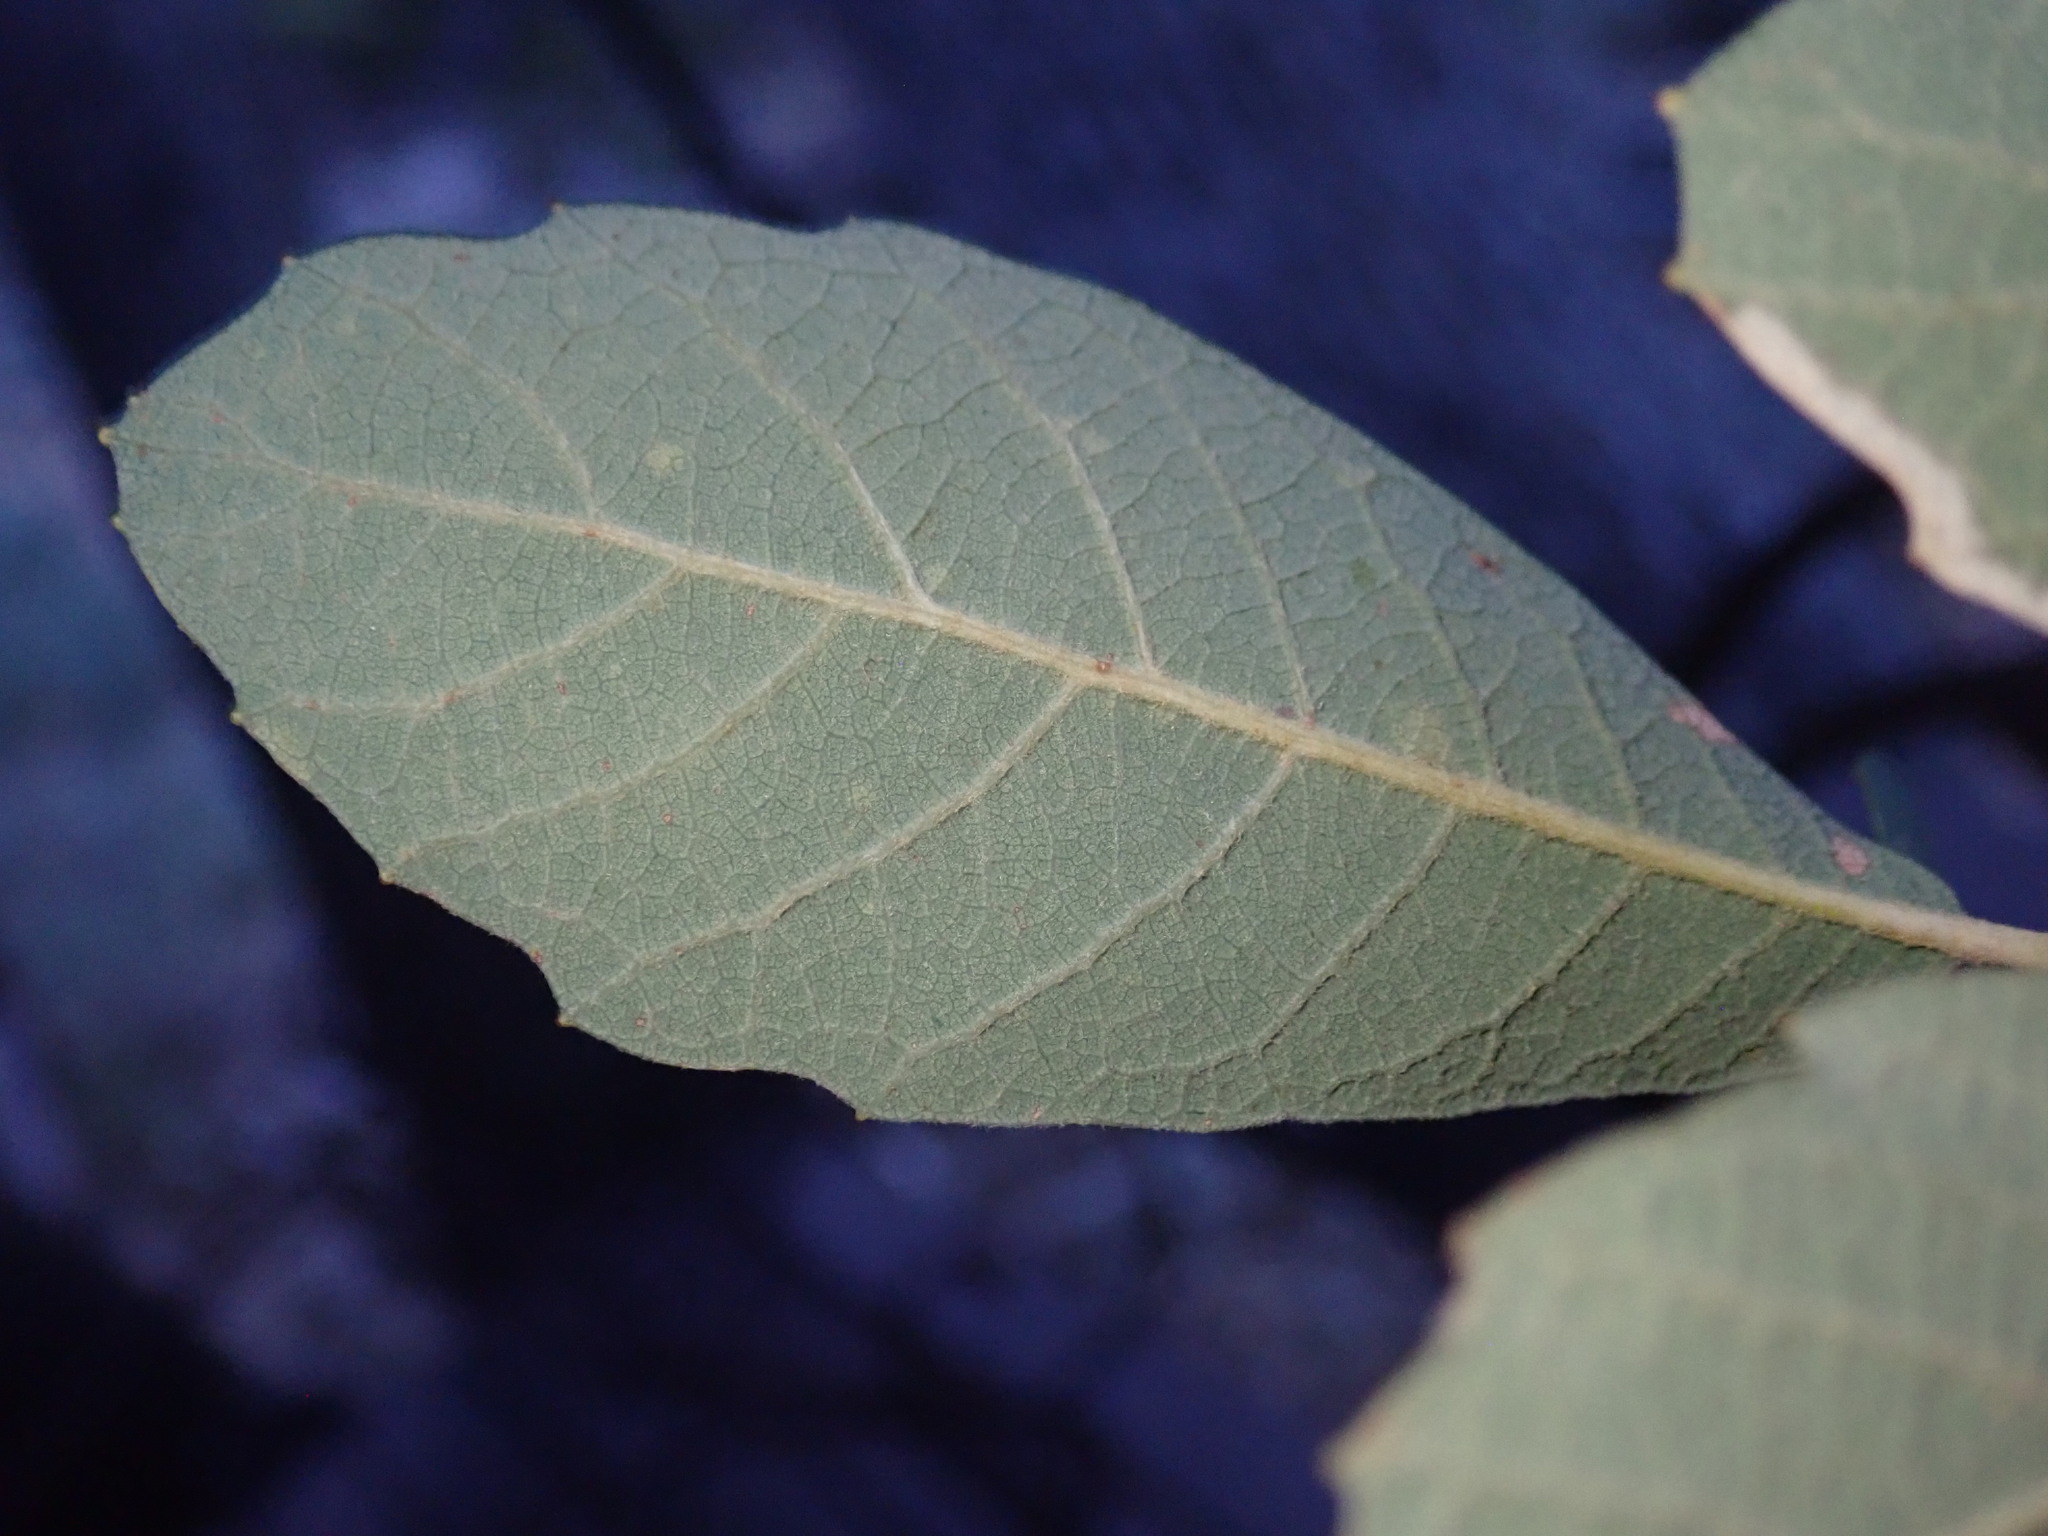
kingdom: Plantae
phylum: Tracheophyta
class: Magnoliopsida
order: Fagales
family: Fagaceae
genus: Quercus
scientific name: Quercus arizonica
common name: Arizona white oak
